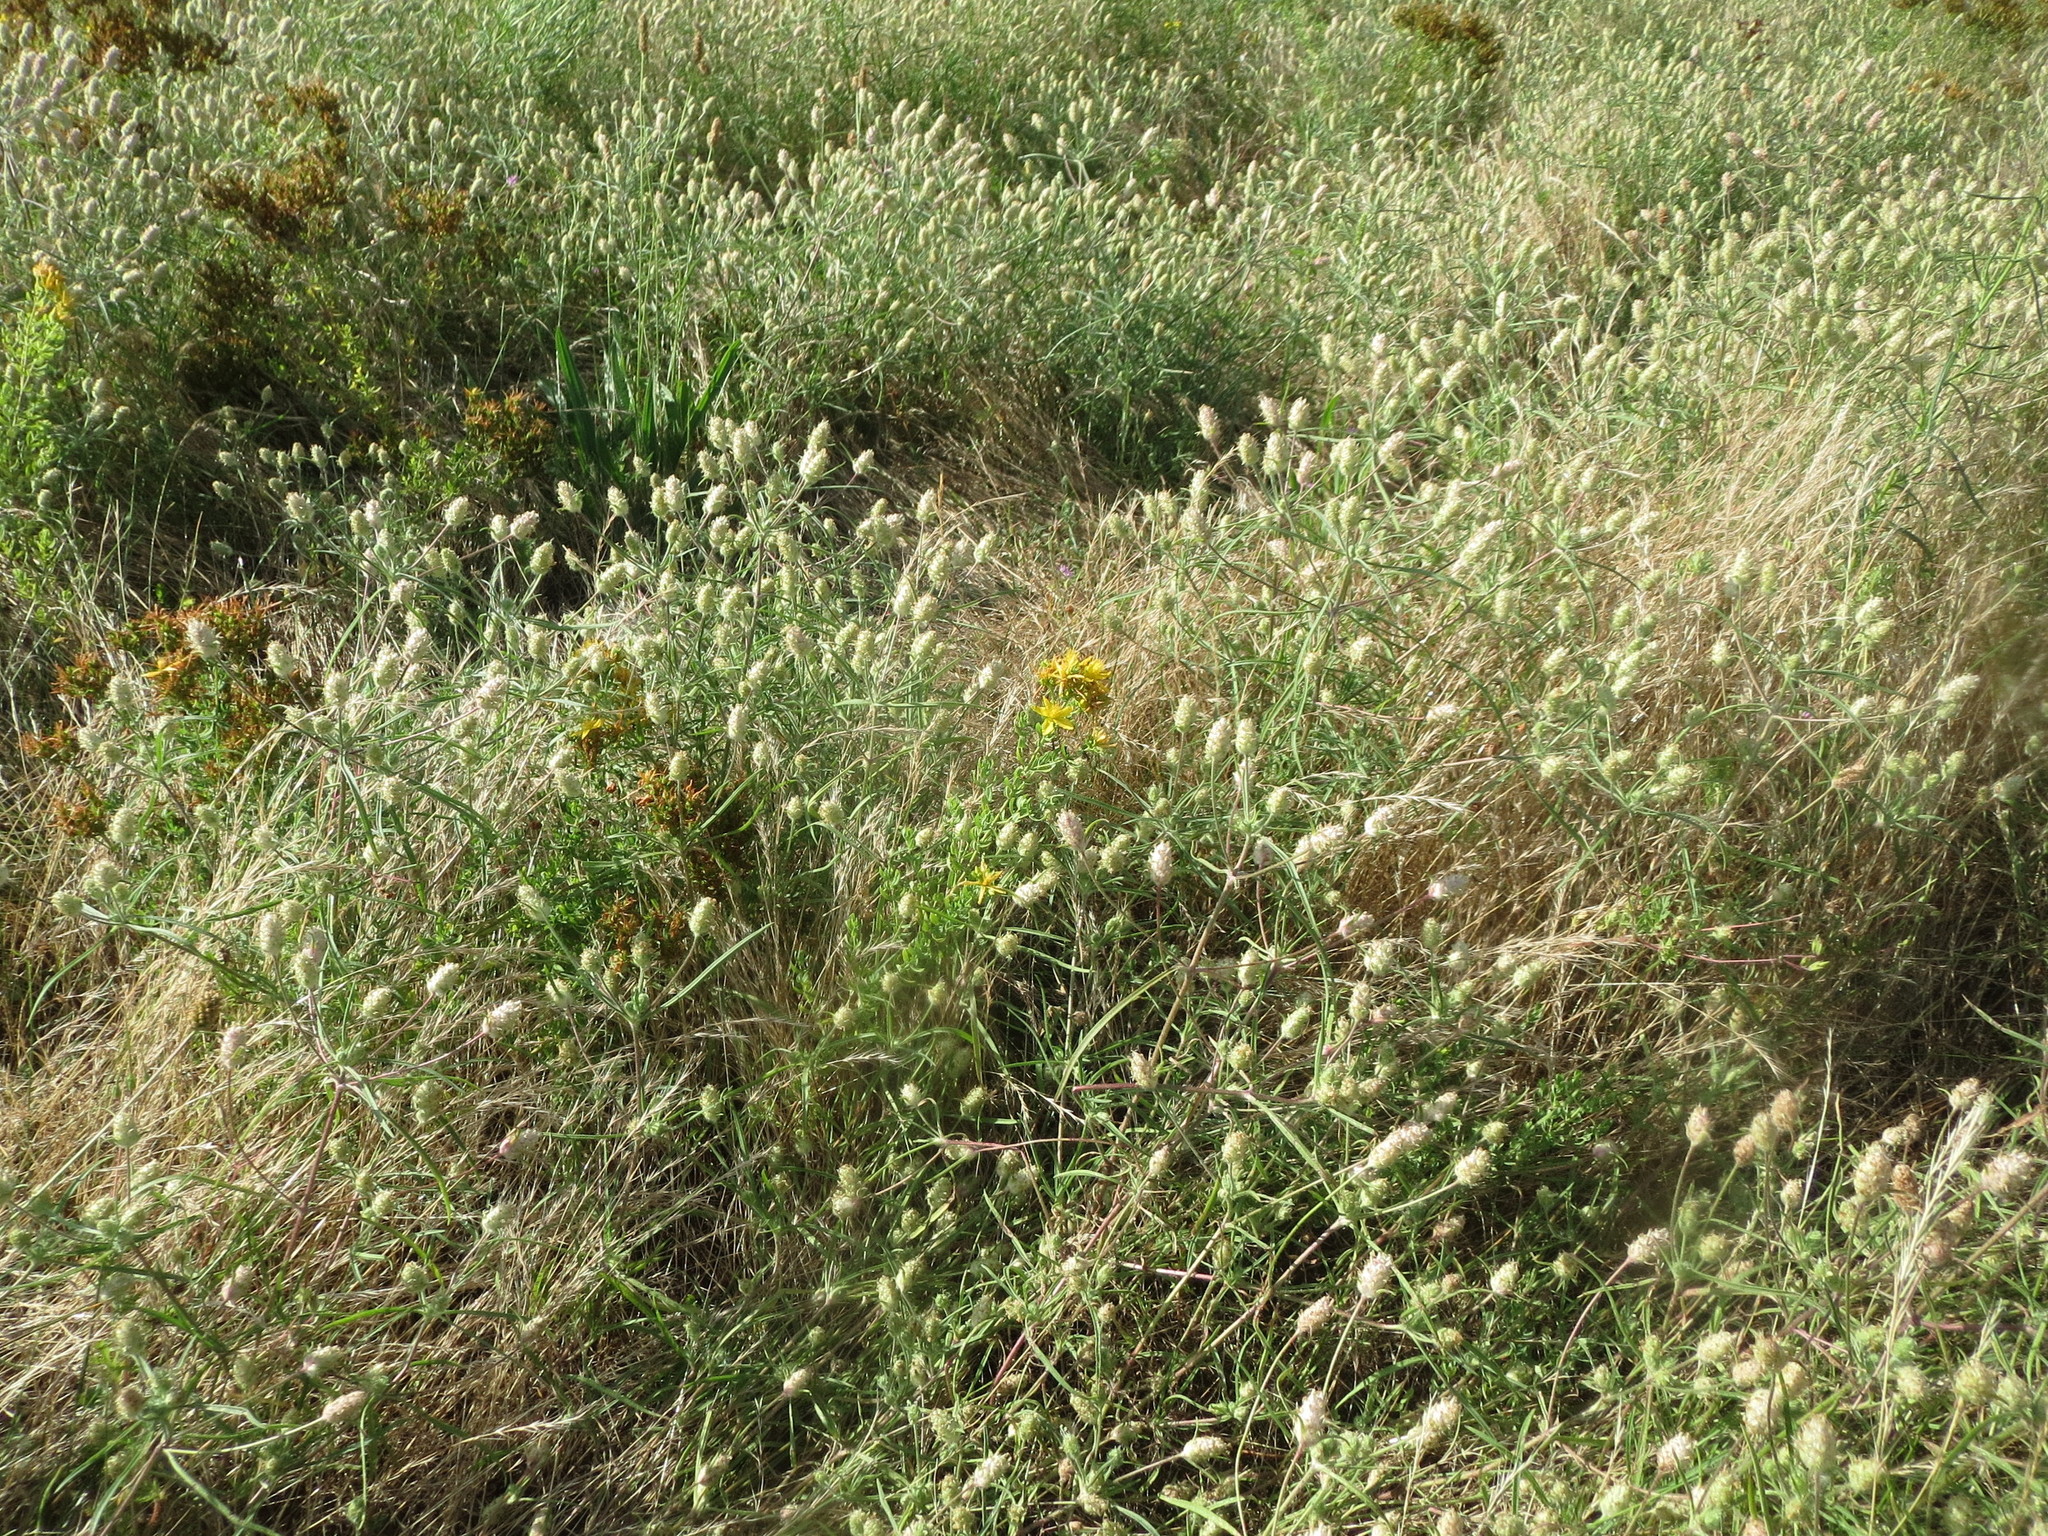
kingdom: Plantae
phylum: Tracheophyta
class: Magnoliopsida
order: Lamiales
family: Plantaginaceae
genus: Plantago
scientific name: Plantago arenaria
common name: Branched plantain
